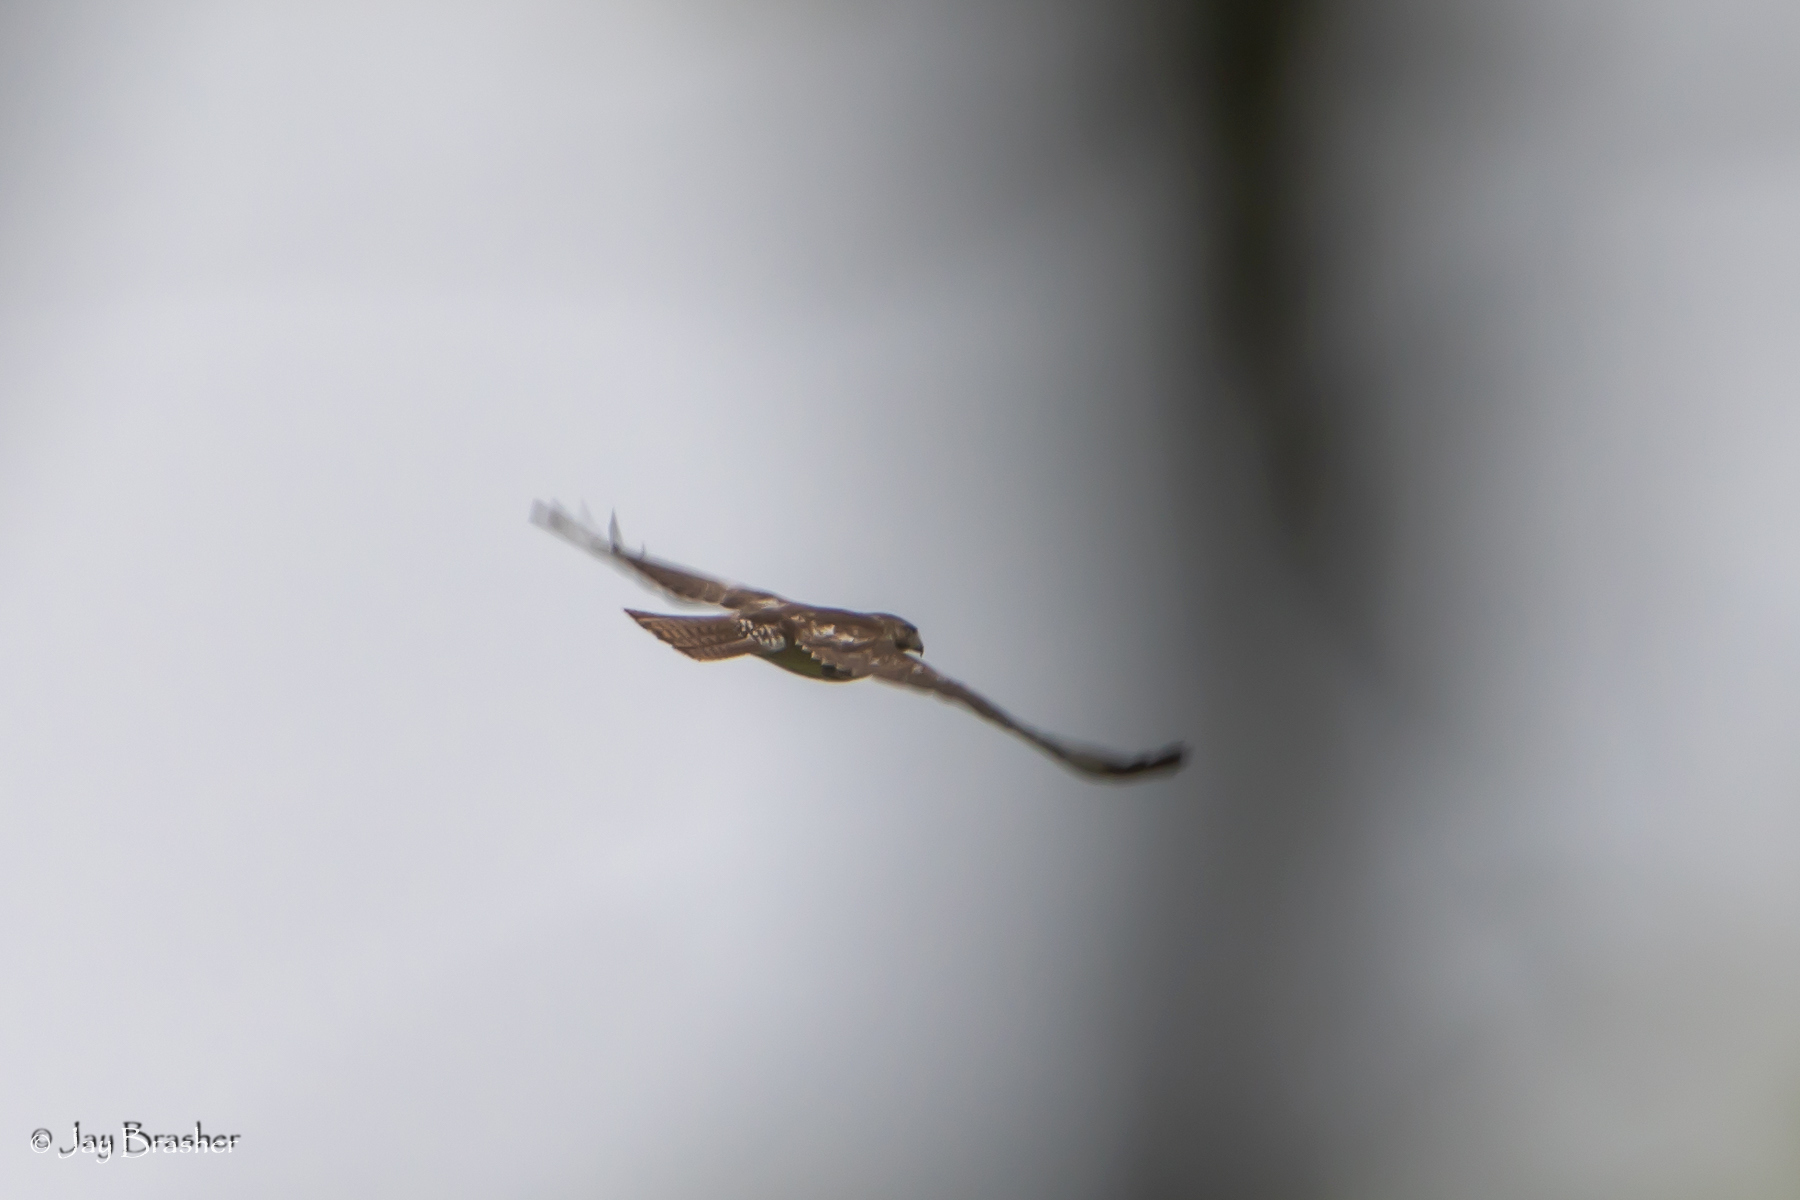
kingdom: Animalia
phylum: Chordata
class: Aves
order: Accipitriformes
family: Accipitridae
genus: Buteo
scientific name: Buteo jamaicensis
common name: Red-tailed hawk
